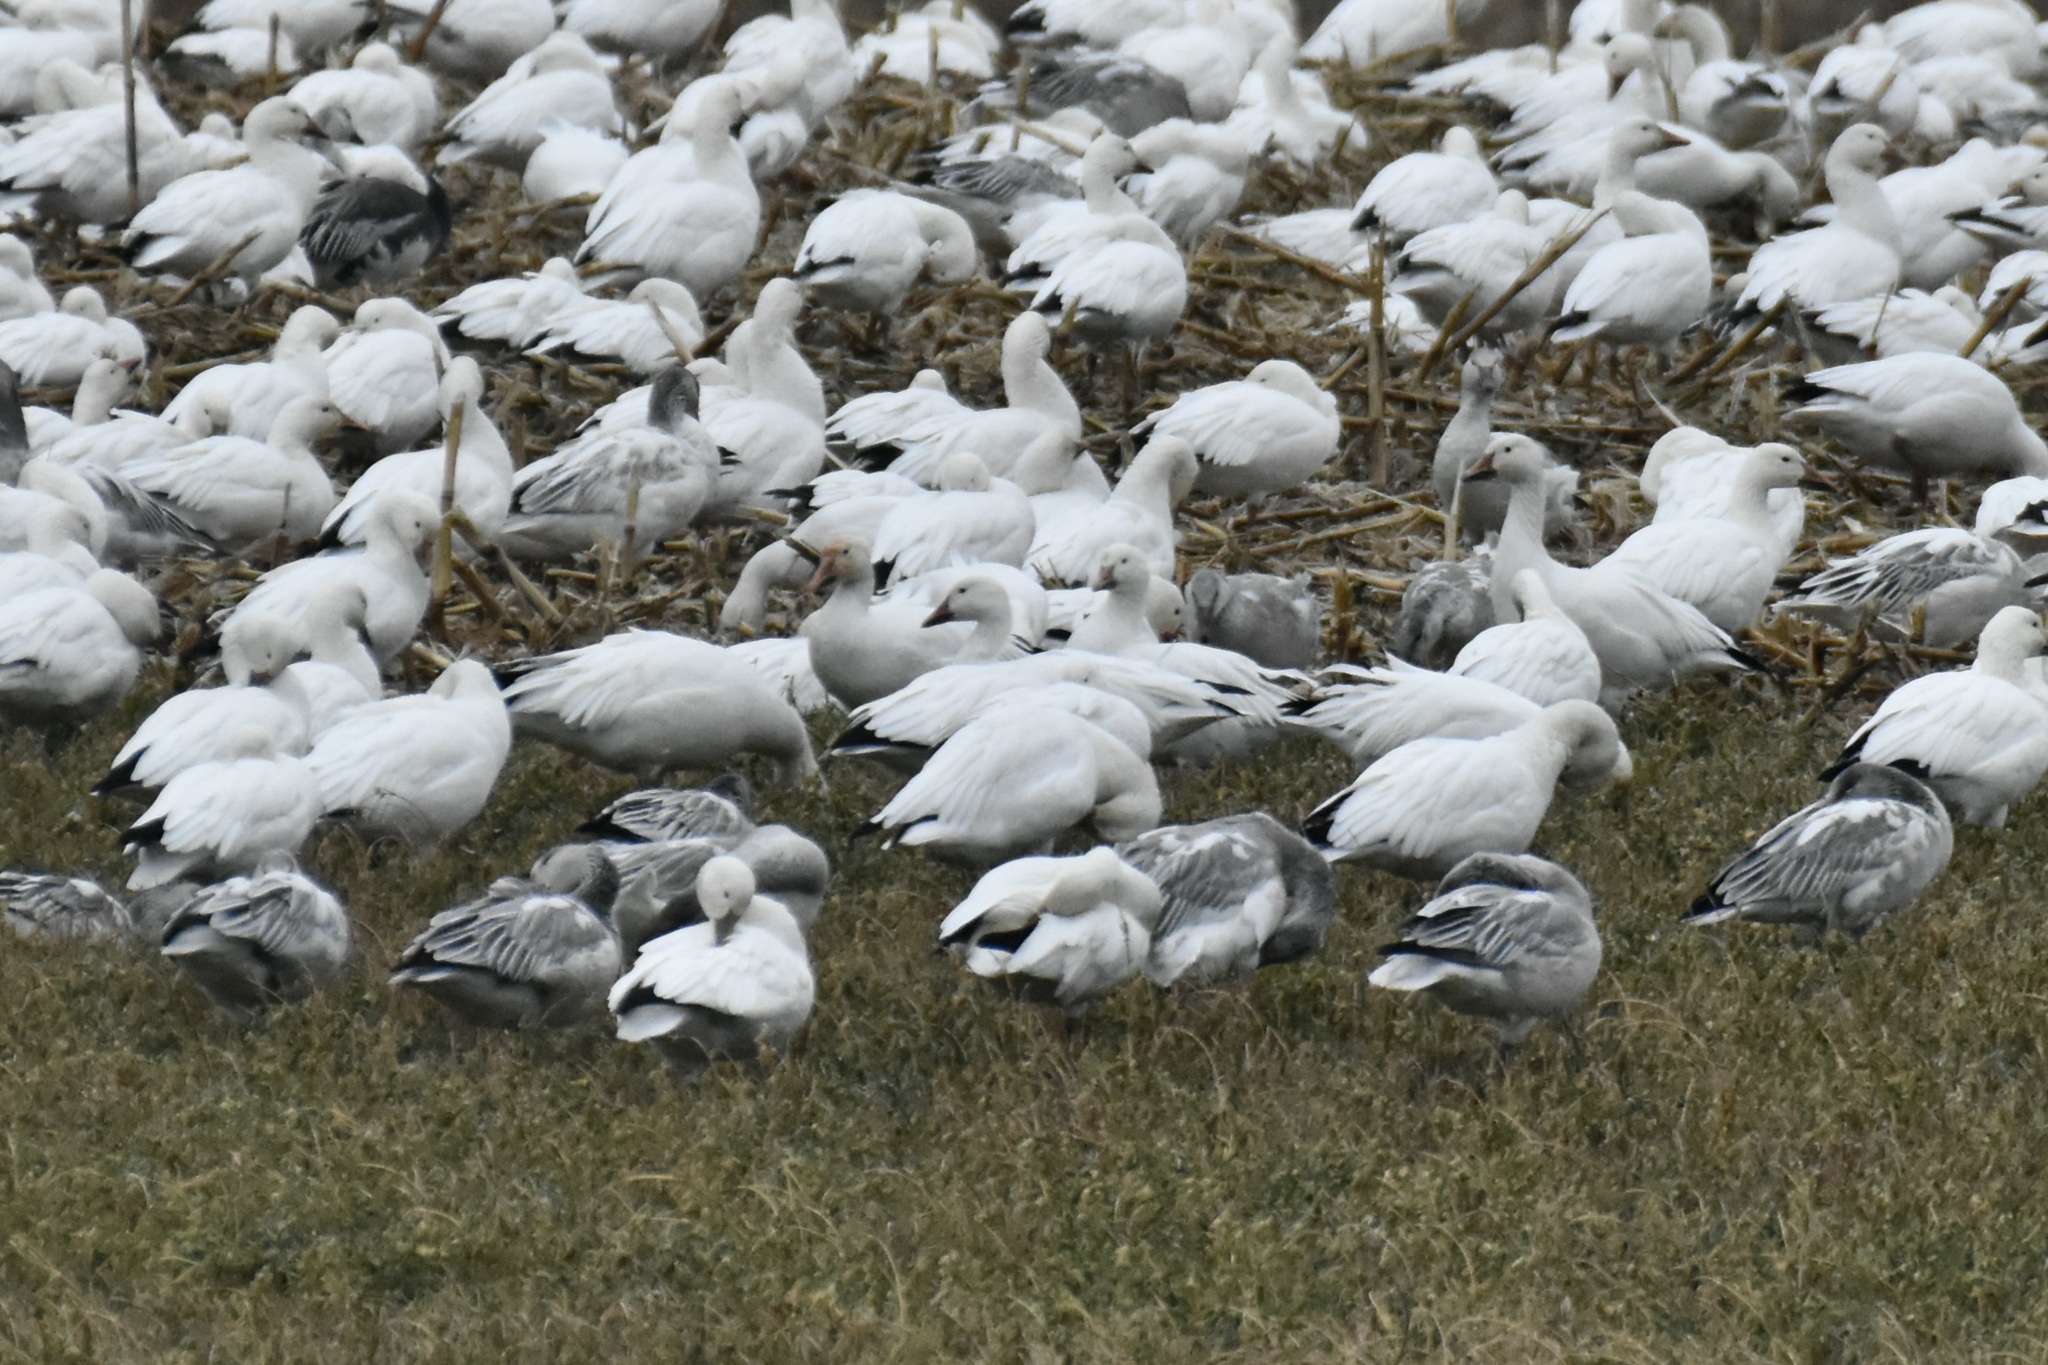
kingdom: Animalia
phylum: Chordata
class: Aves
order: Anseriformes
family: Anatidae
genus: Anser
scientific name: Anser caerulescens
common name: Snow goose
